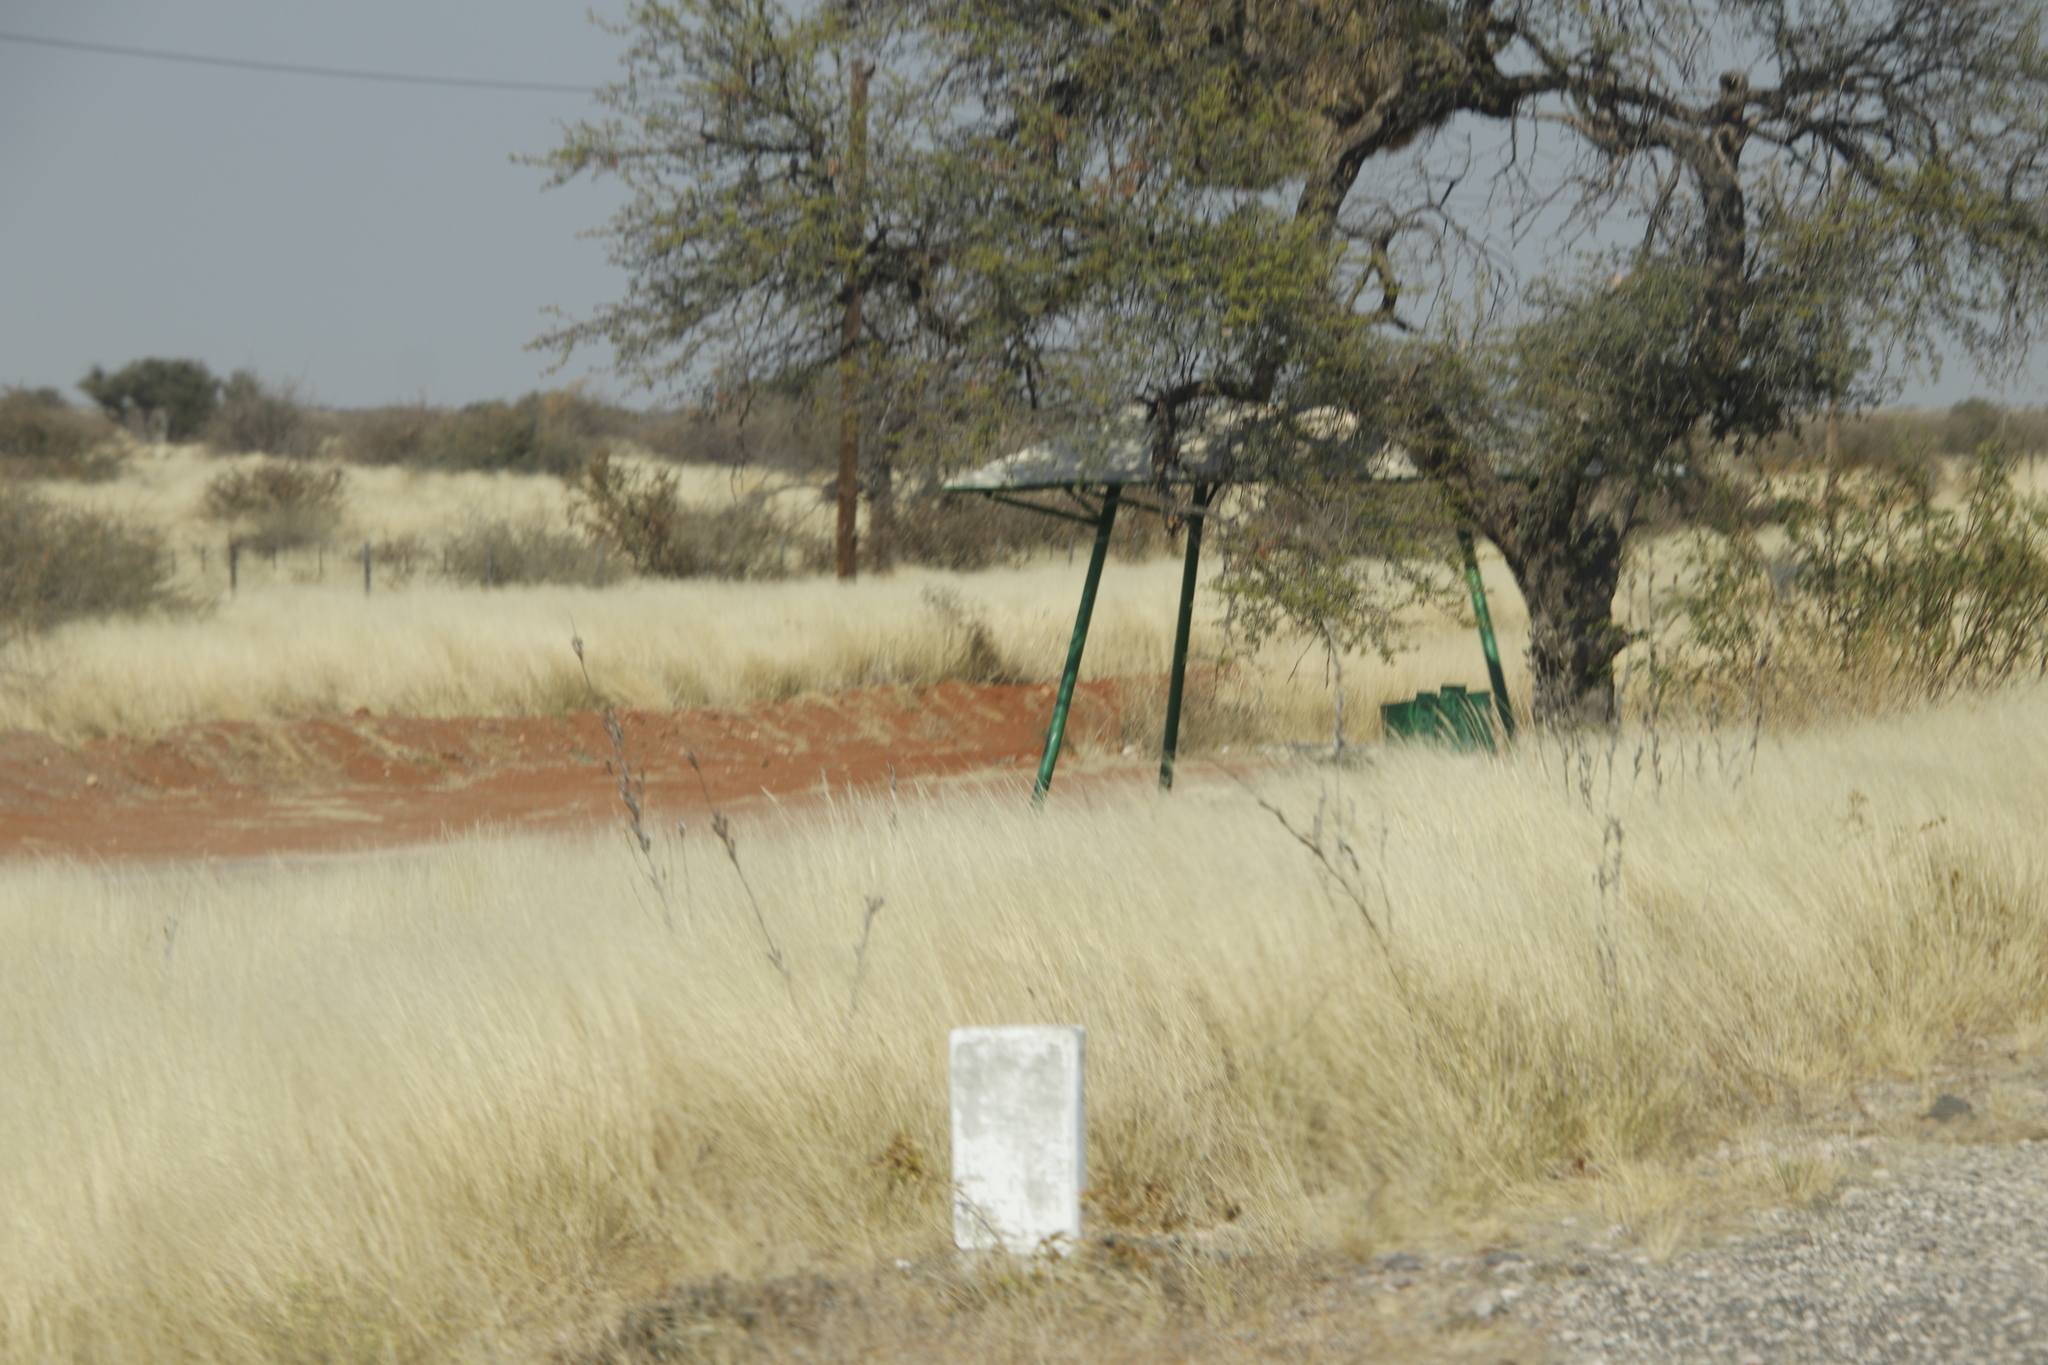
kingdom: Animalia
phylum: Chordata
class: Aves
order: Passeriformes
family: Passeridae
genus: Philetairus
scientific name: Philetairus socius
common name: Sociable weaver
